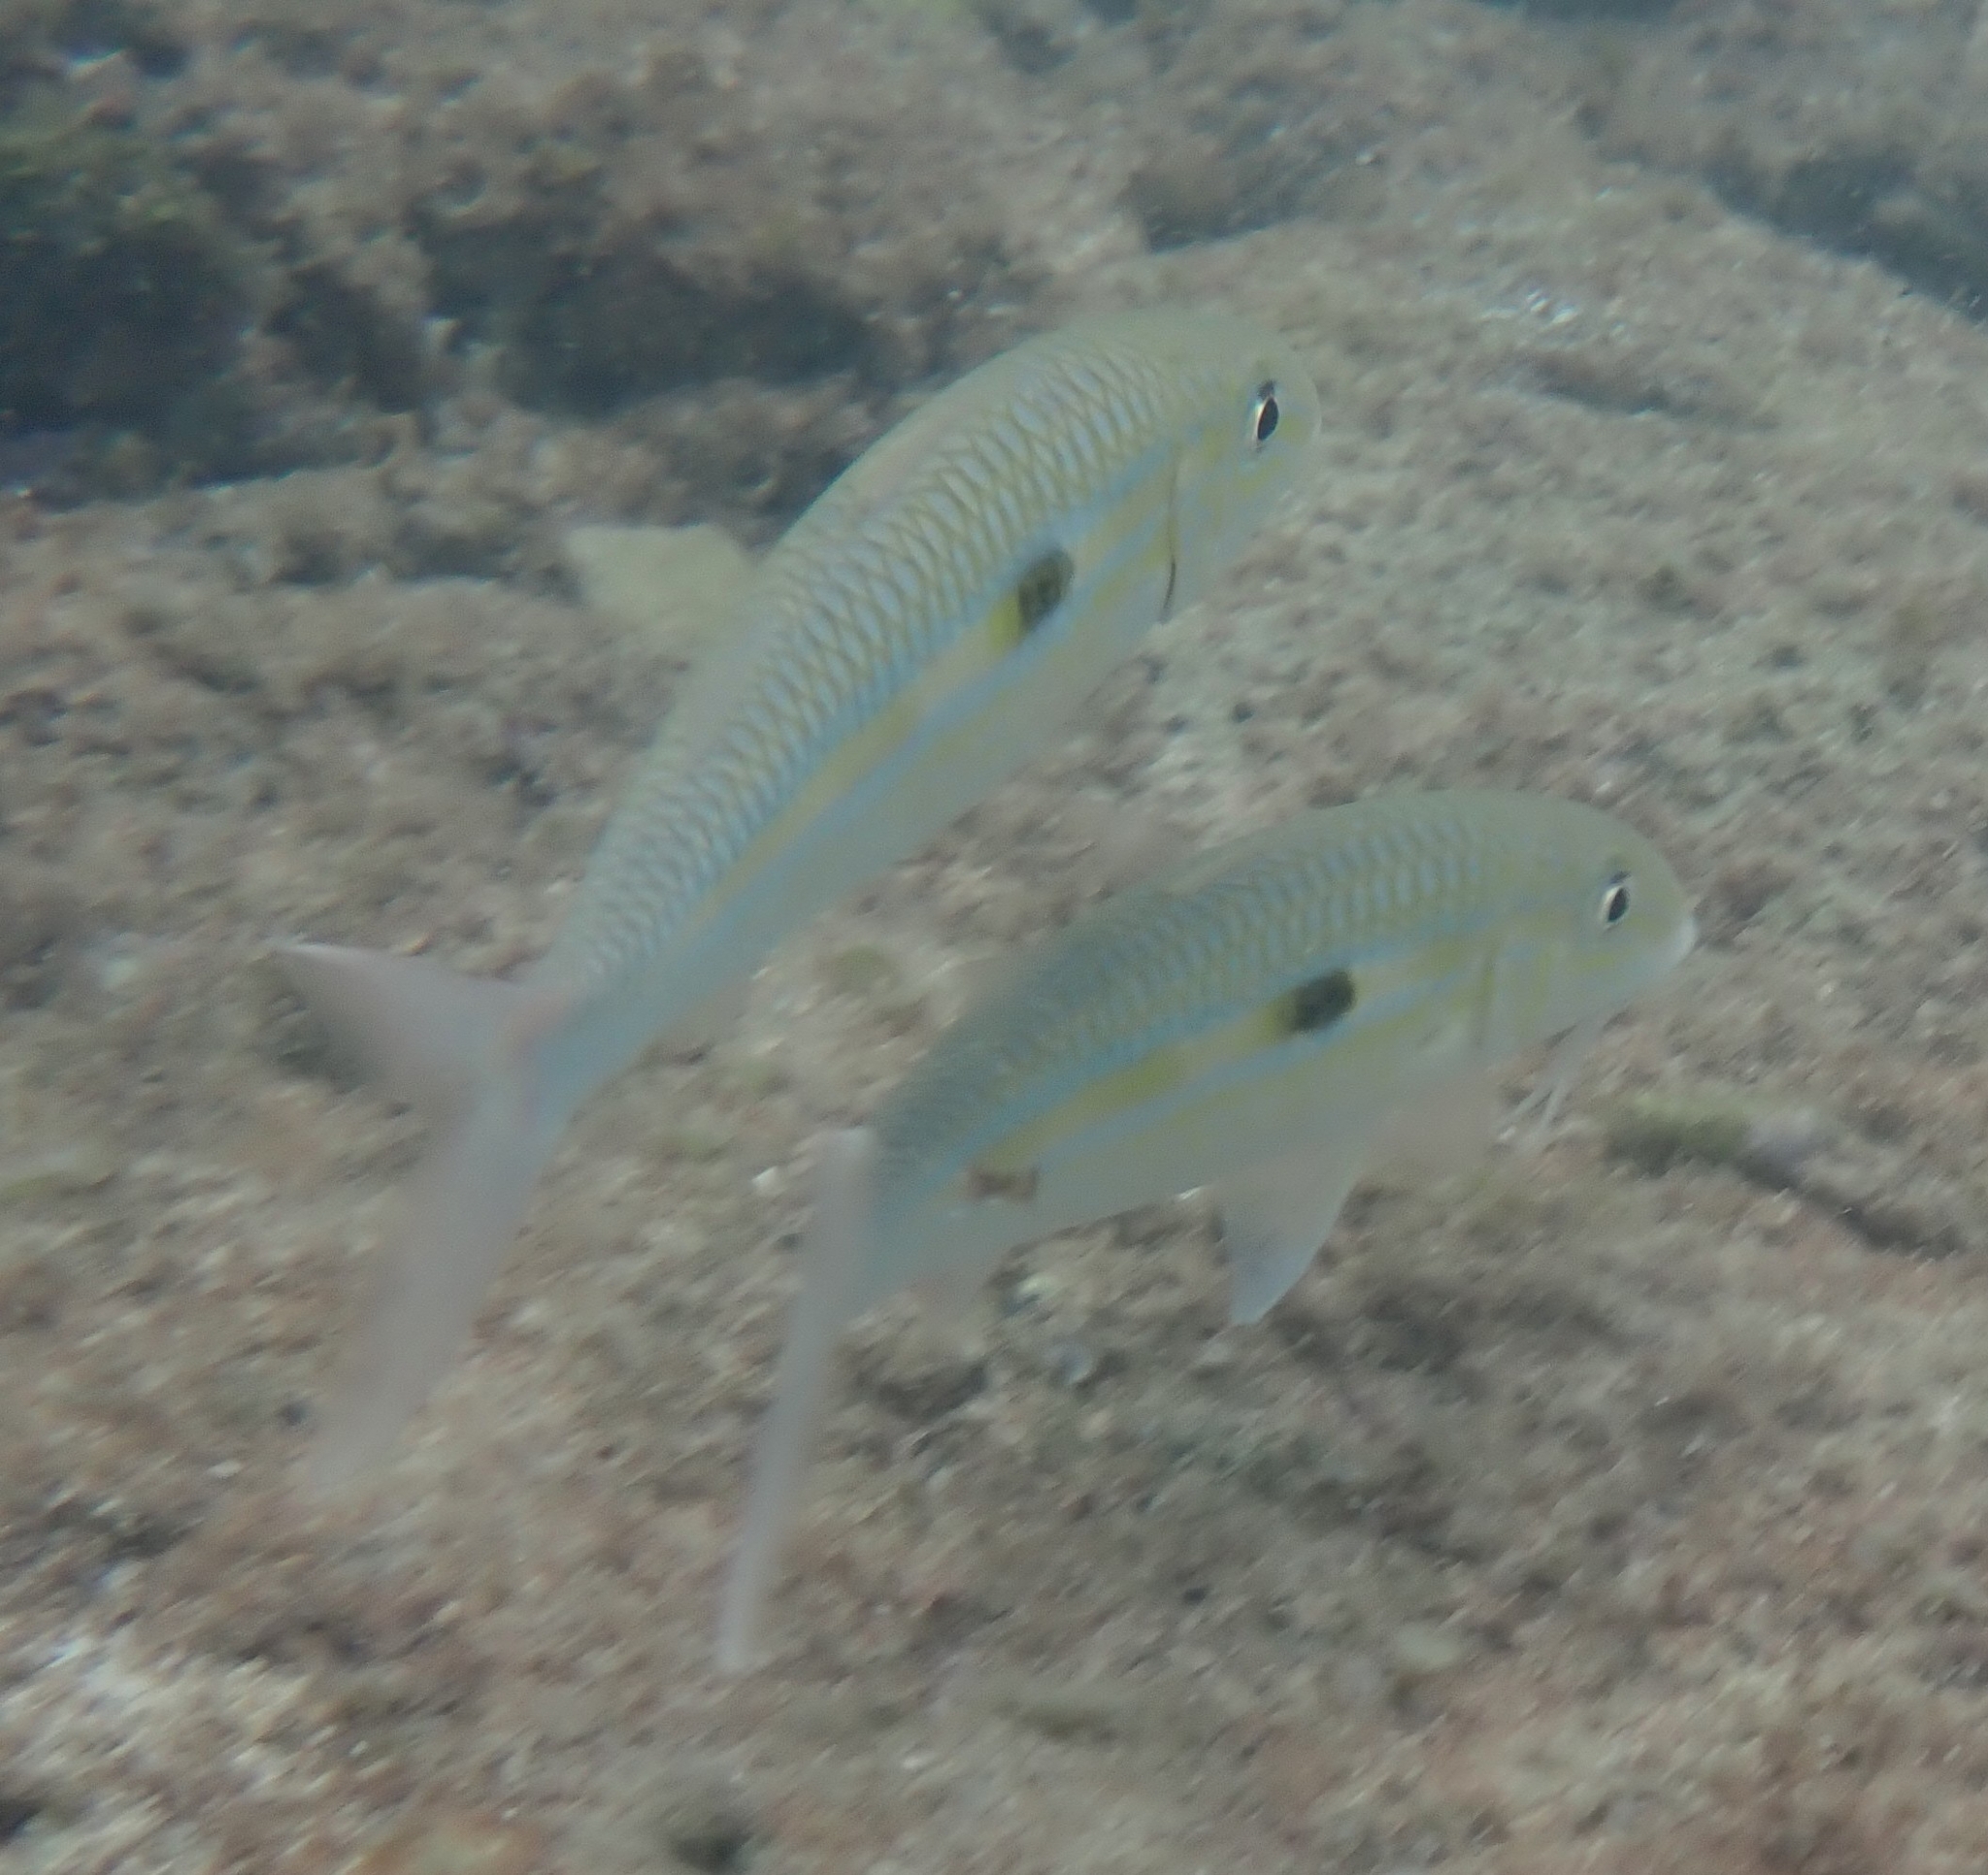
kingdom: Animalia
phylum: Chordata
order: Perciformes
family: Mullidae
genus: Mulloidichthys
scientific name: Mulloidichthys flavolineatus
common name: Yellowstripe goatfish
